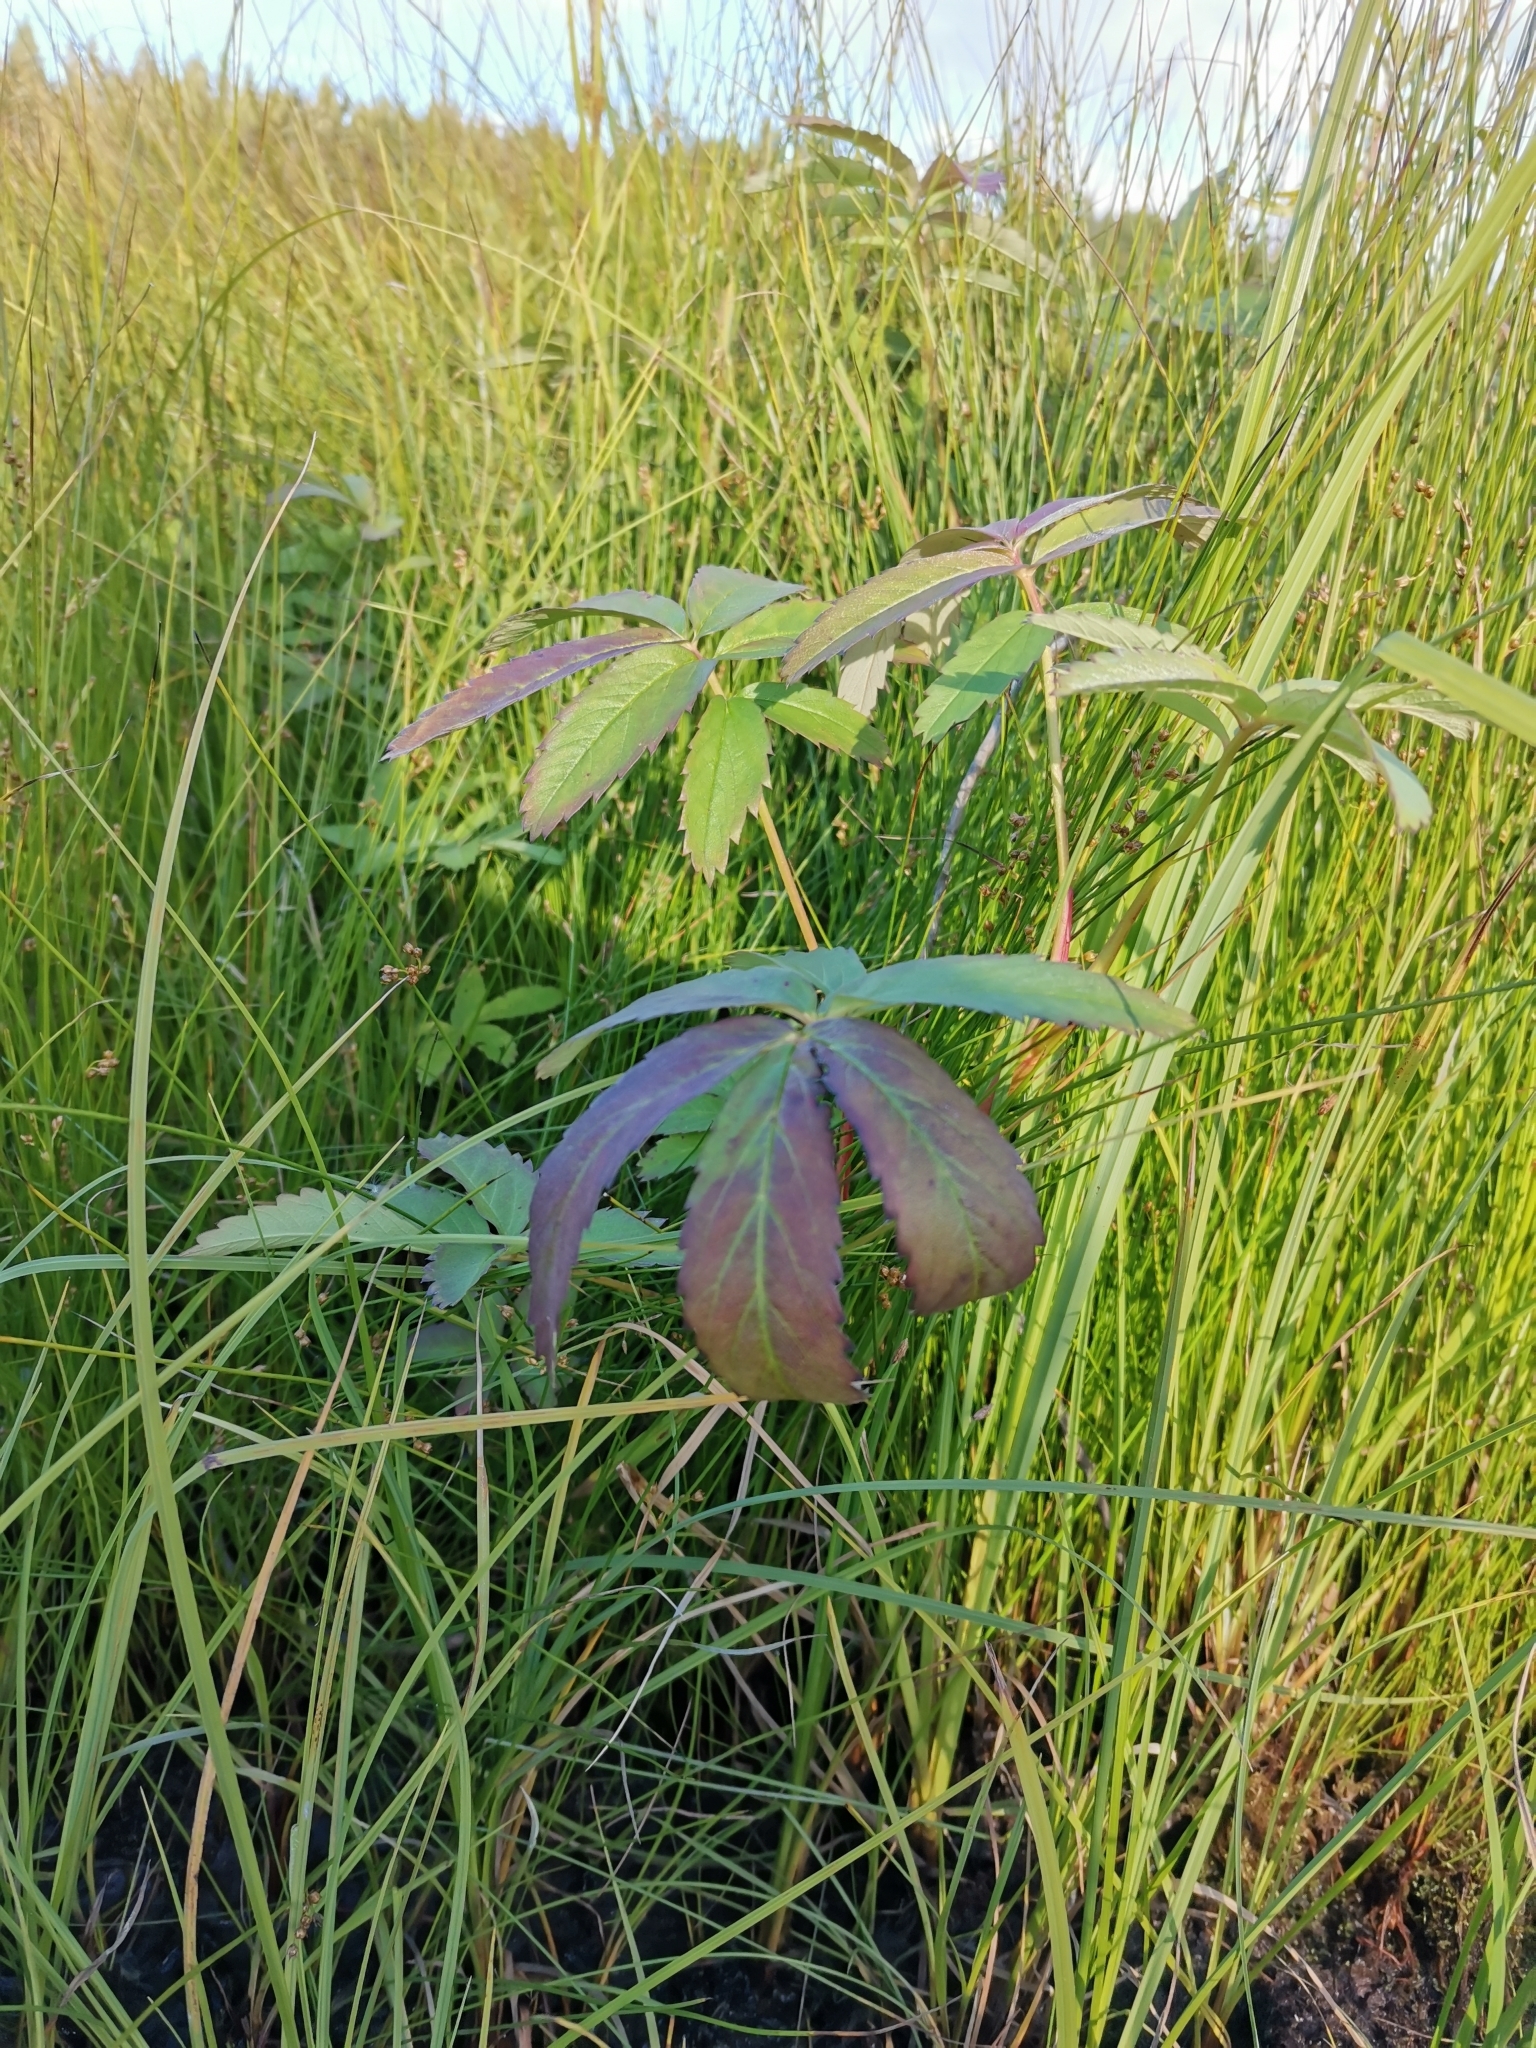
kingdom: Plantae
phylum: Tracheophyta
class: Magnoliopsida
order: Rosales
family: Rosaceae
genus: Comarum
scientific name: Comarum palustre
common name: Marsh cinquefoil
